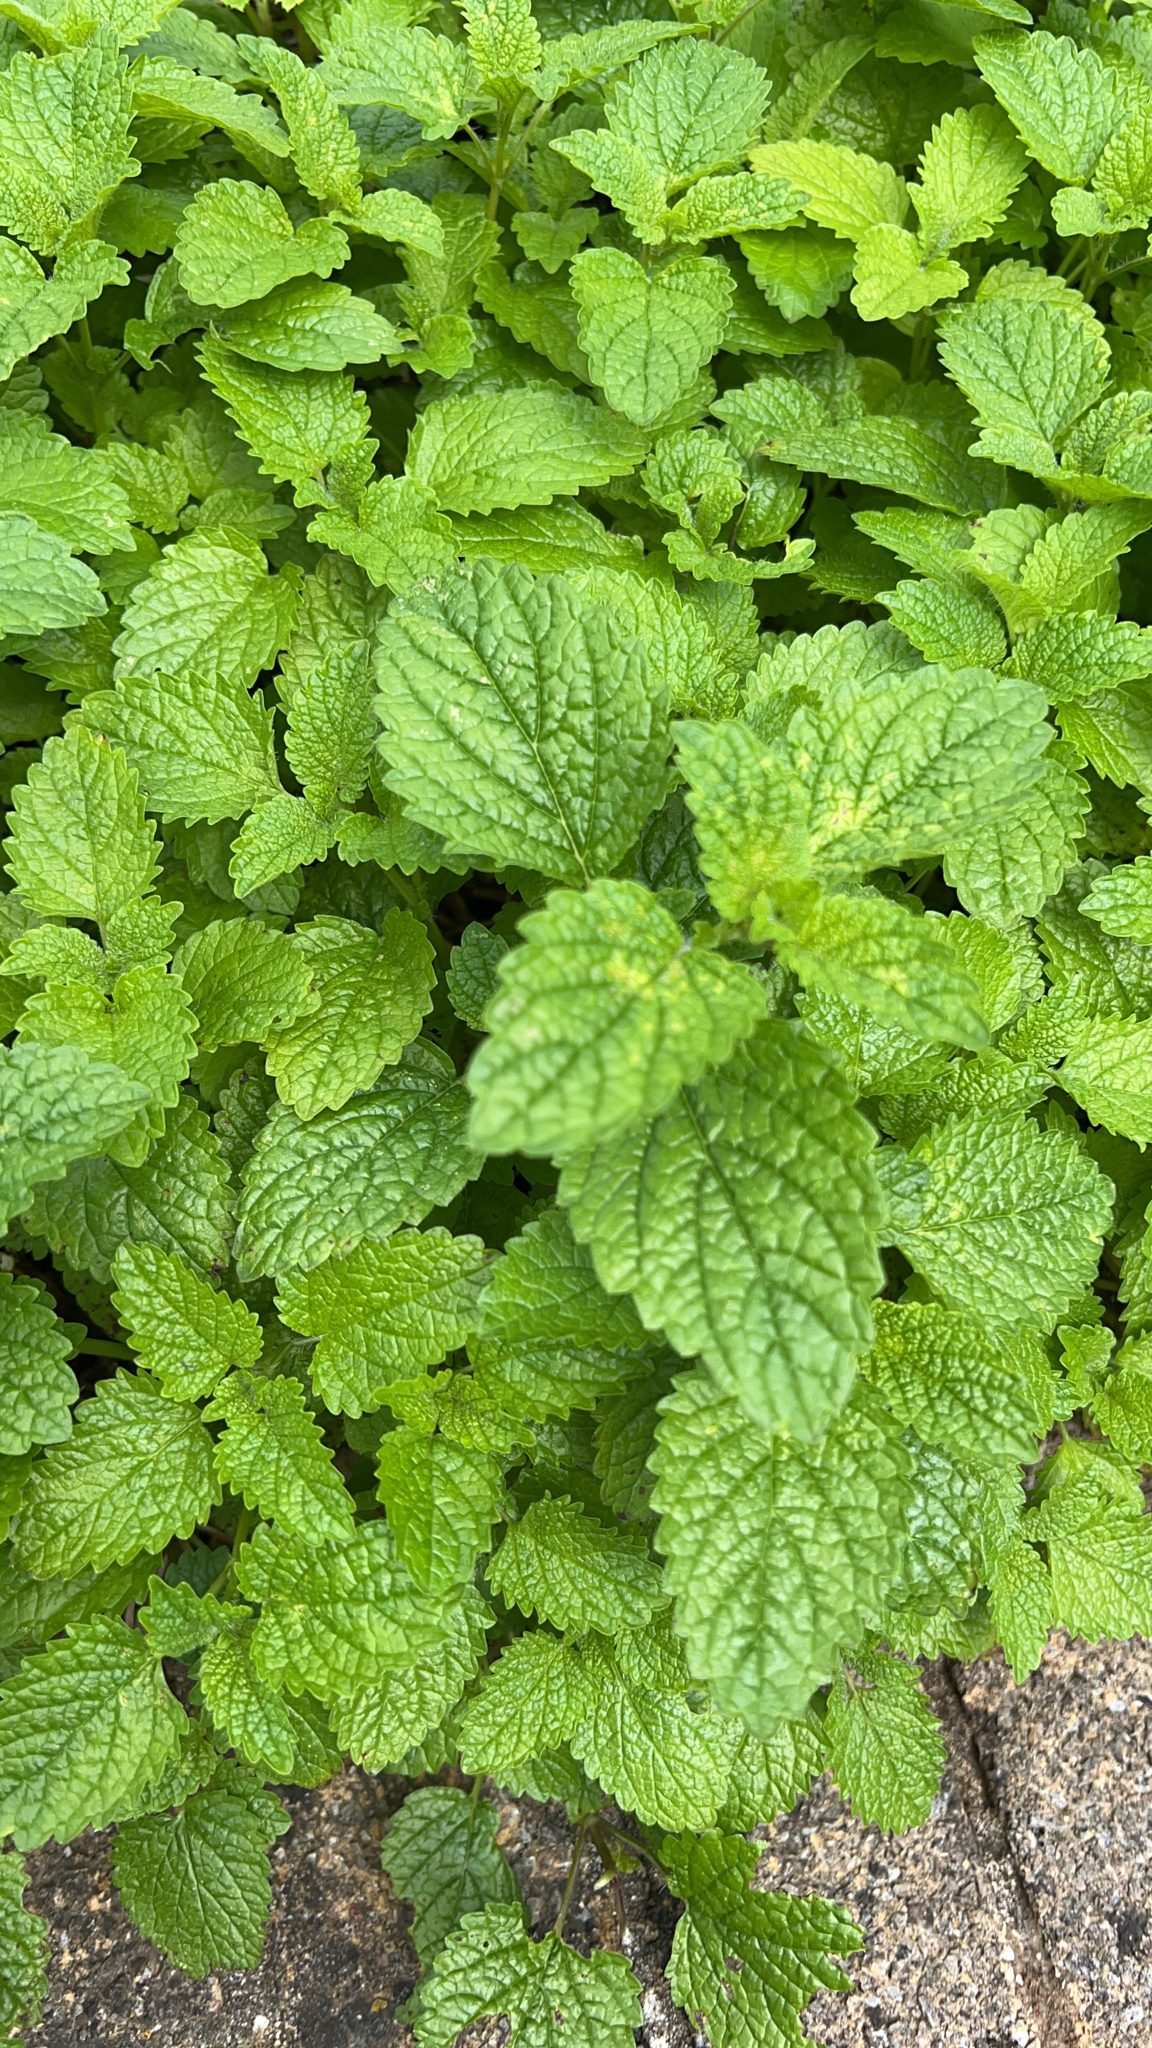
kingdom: Plantae
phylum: Tracheophyta
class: Magnoliopsida
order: Lamiales
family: Lamiaceae
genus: Melissa
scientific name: Melissa officinalis
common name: Balm
